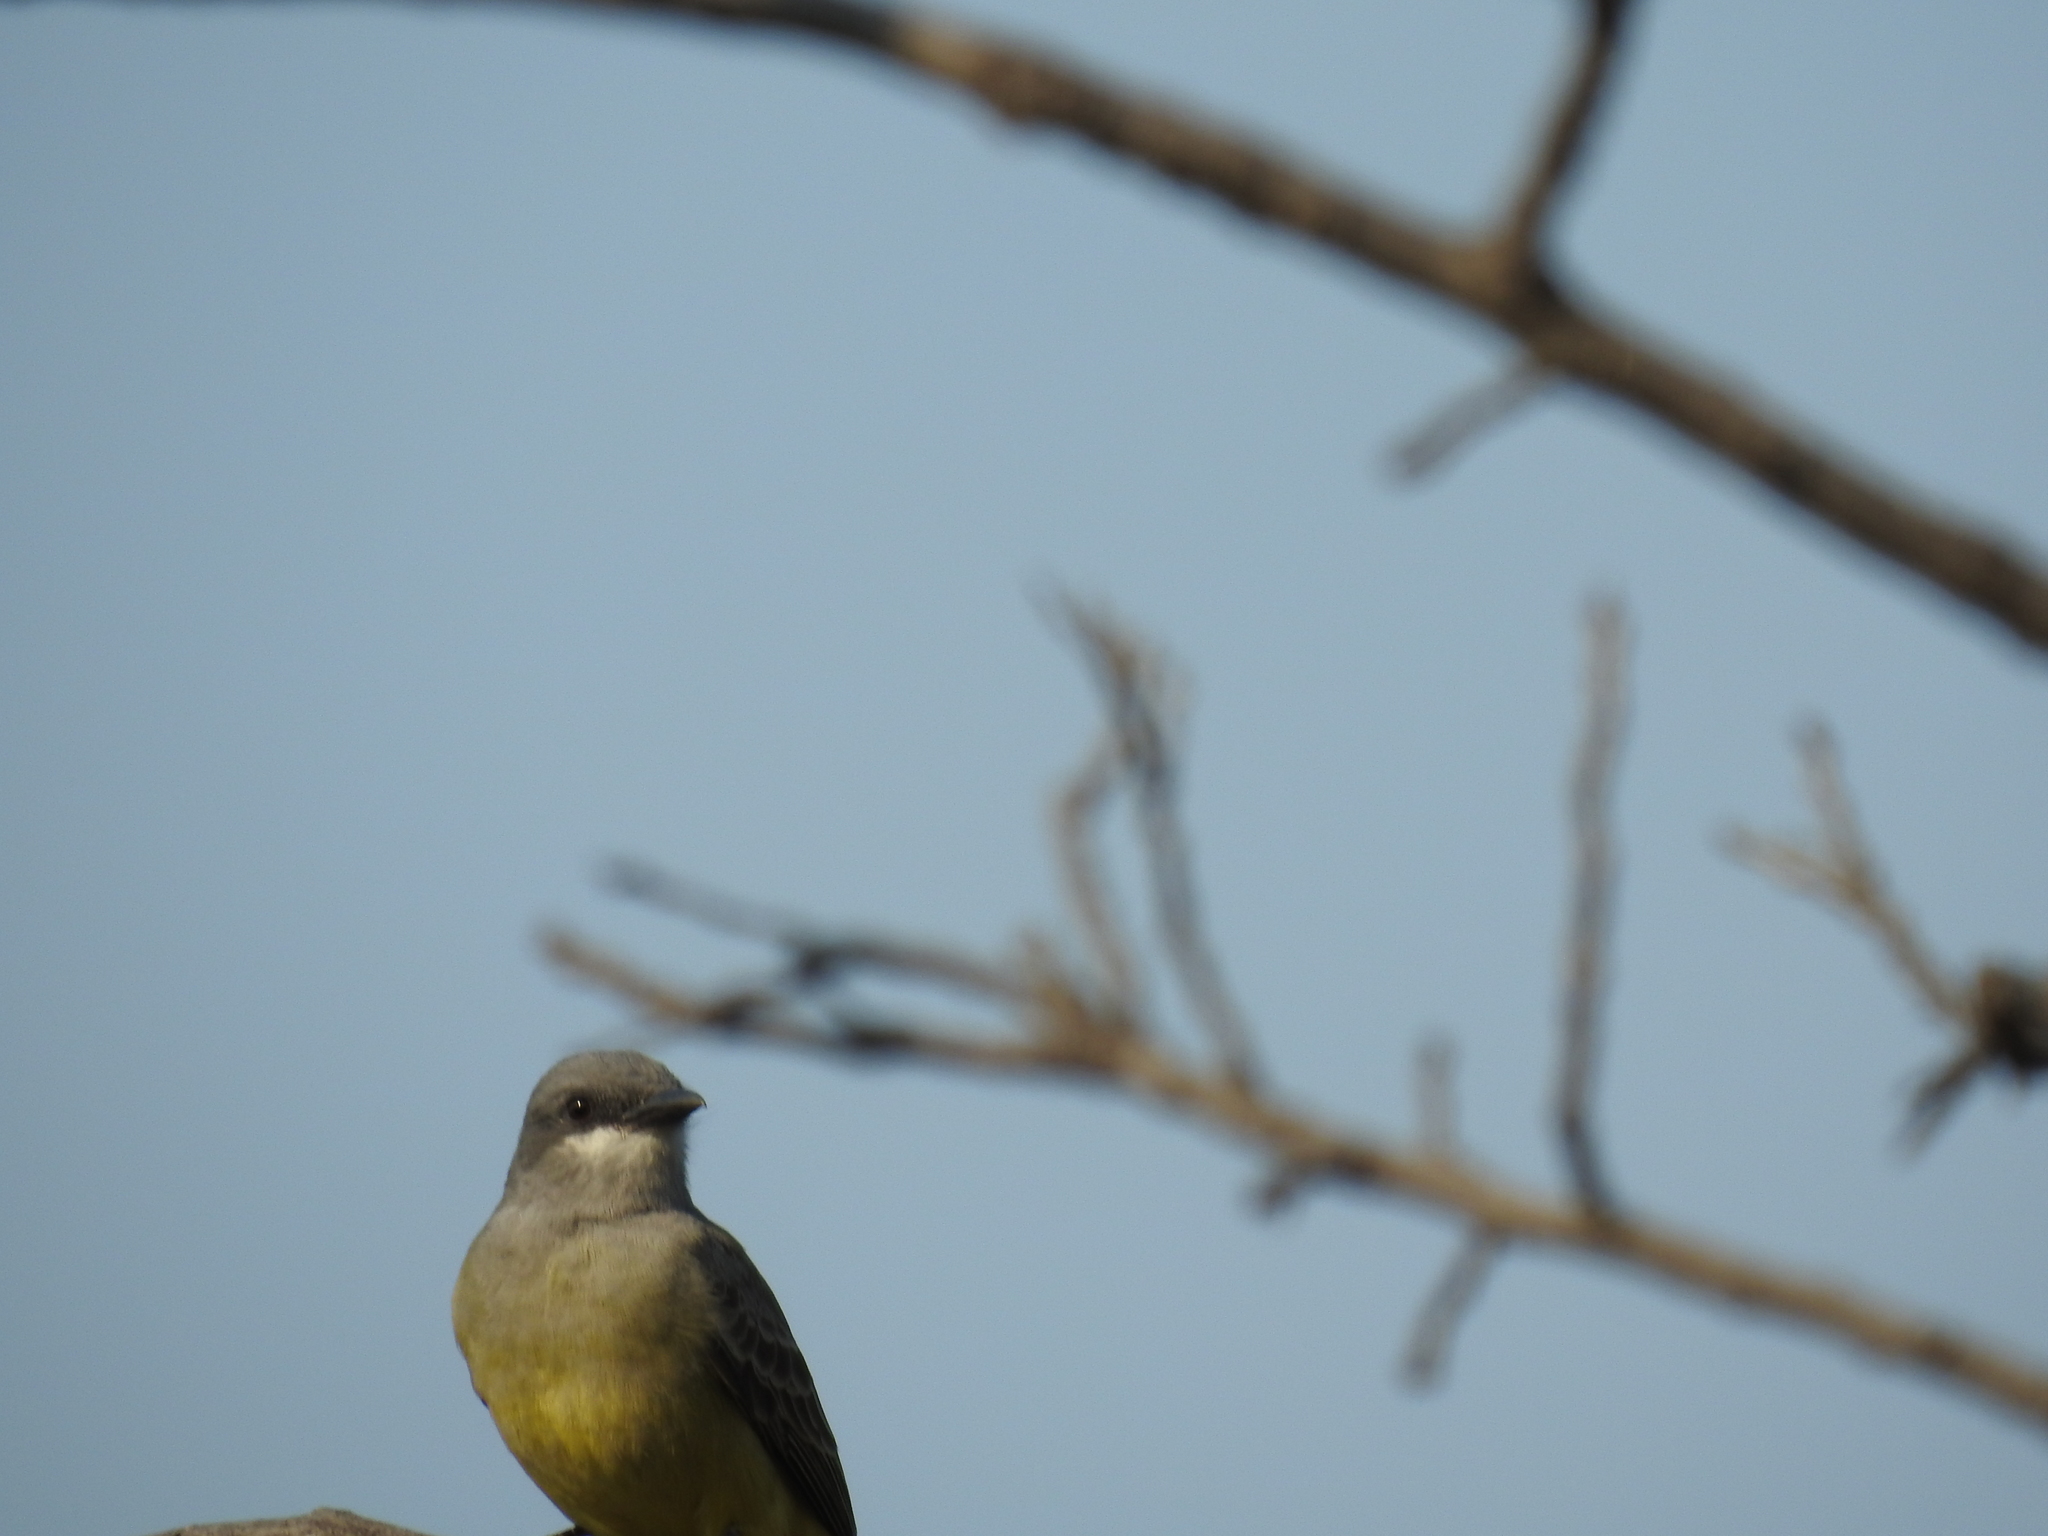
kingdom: Animalia
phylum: Chordata
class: Aves
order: Passeriformes
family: Tyrannidae
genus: Tyrannus
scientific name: Tyrannus vociferans
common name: Cassin's kingbird
